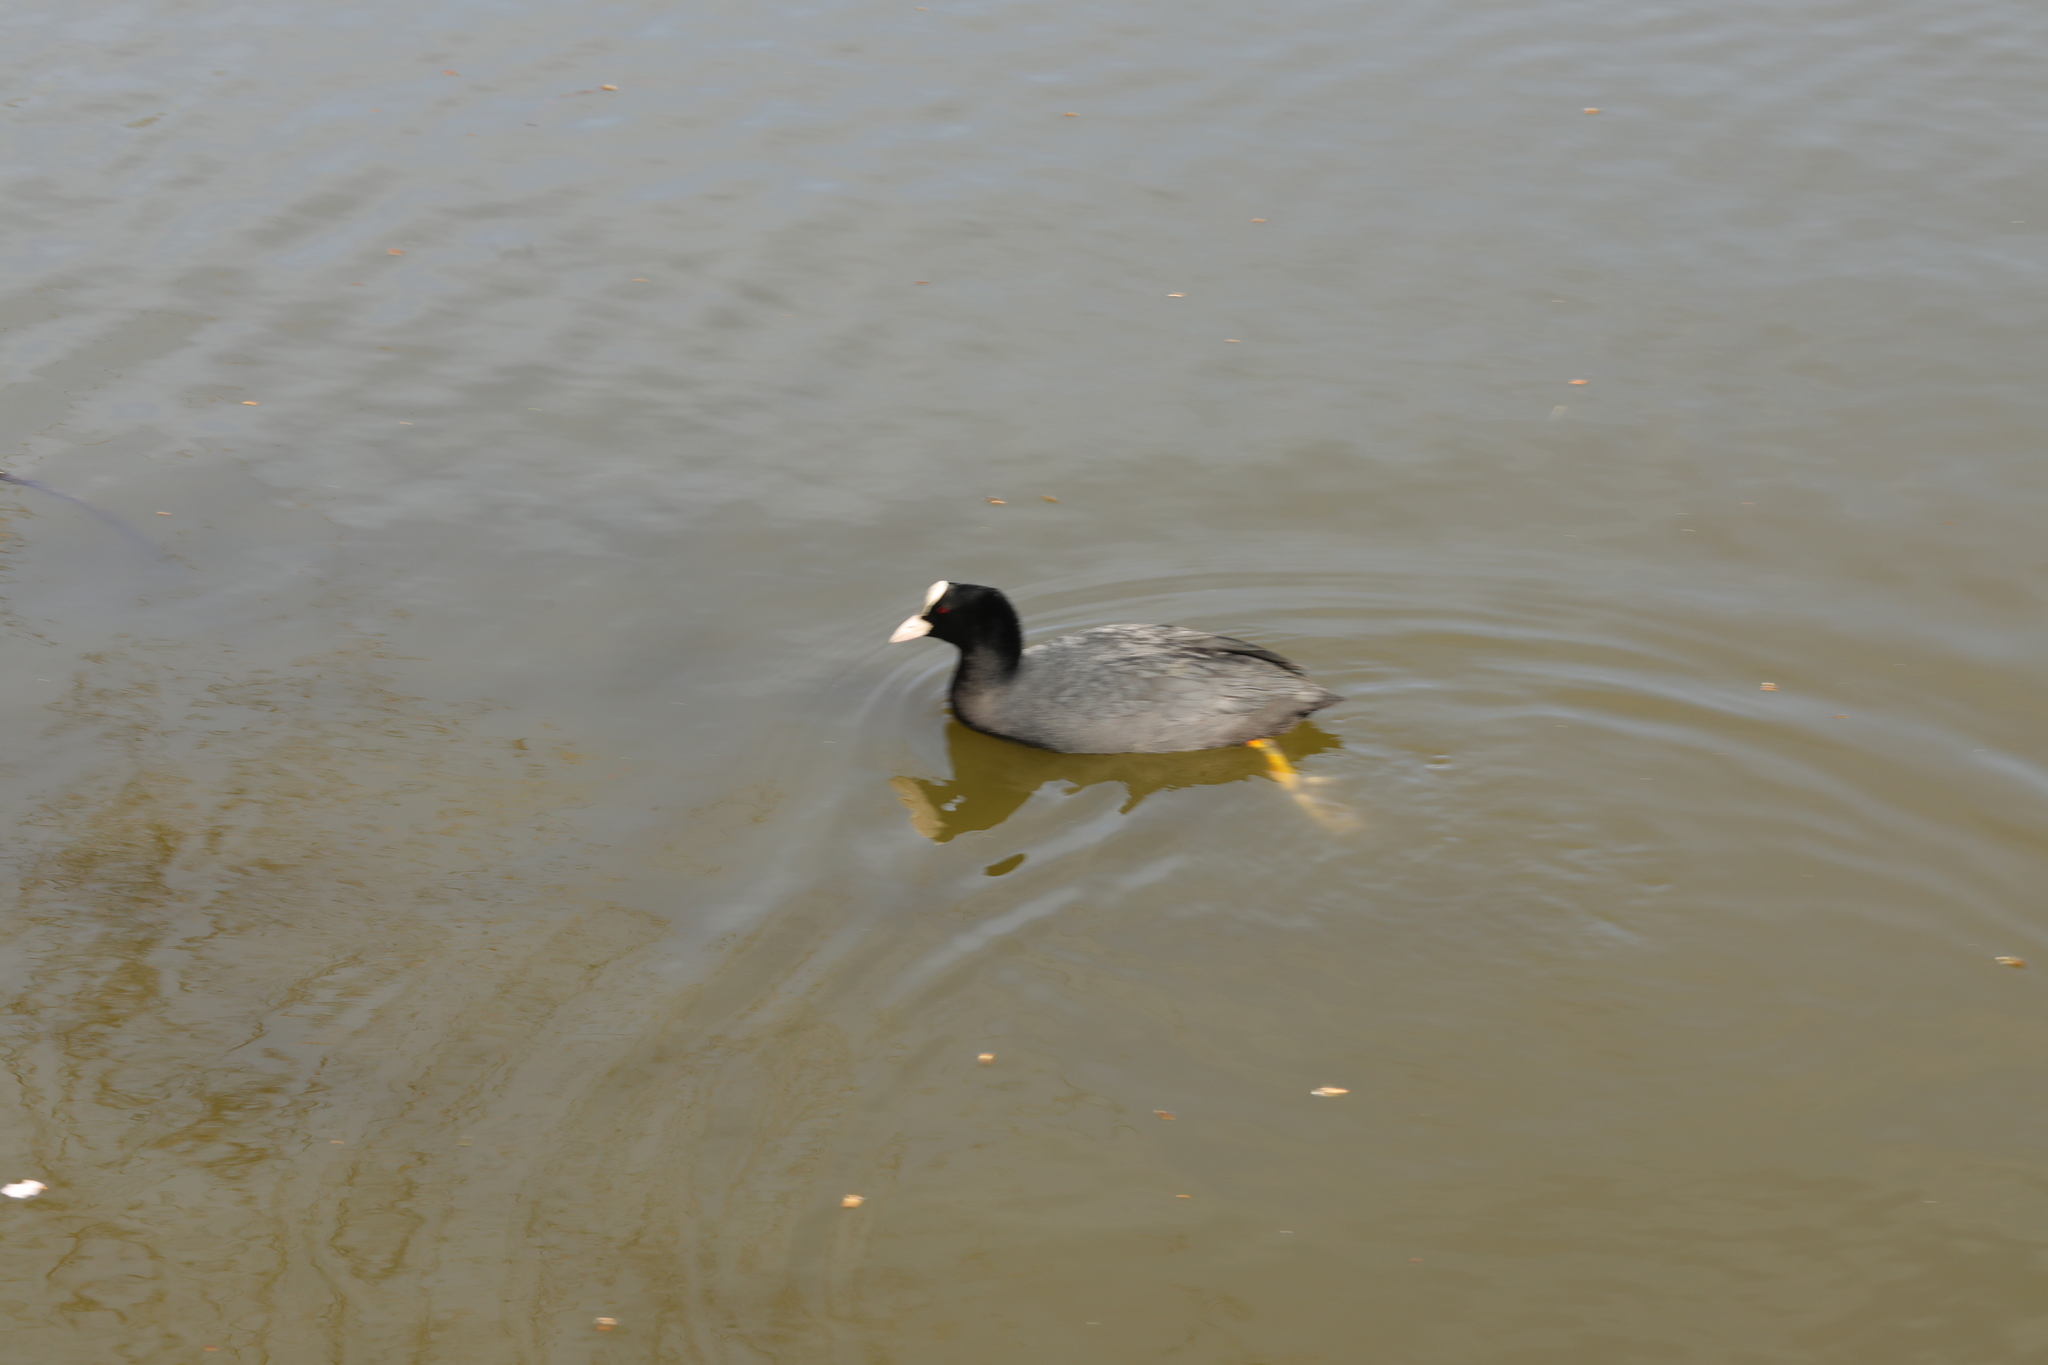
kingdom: Animalia
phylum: Chordata
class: Aves
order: Gruiformes
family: Rallidae
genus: Fulica
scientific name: Fulica atra
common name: Eurasian coot
